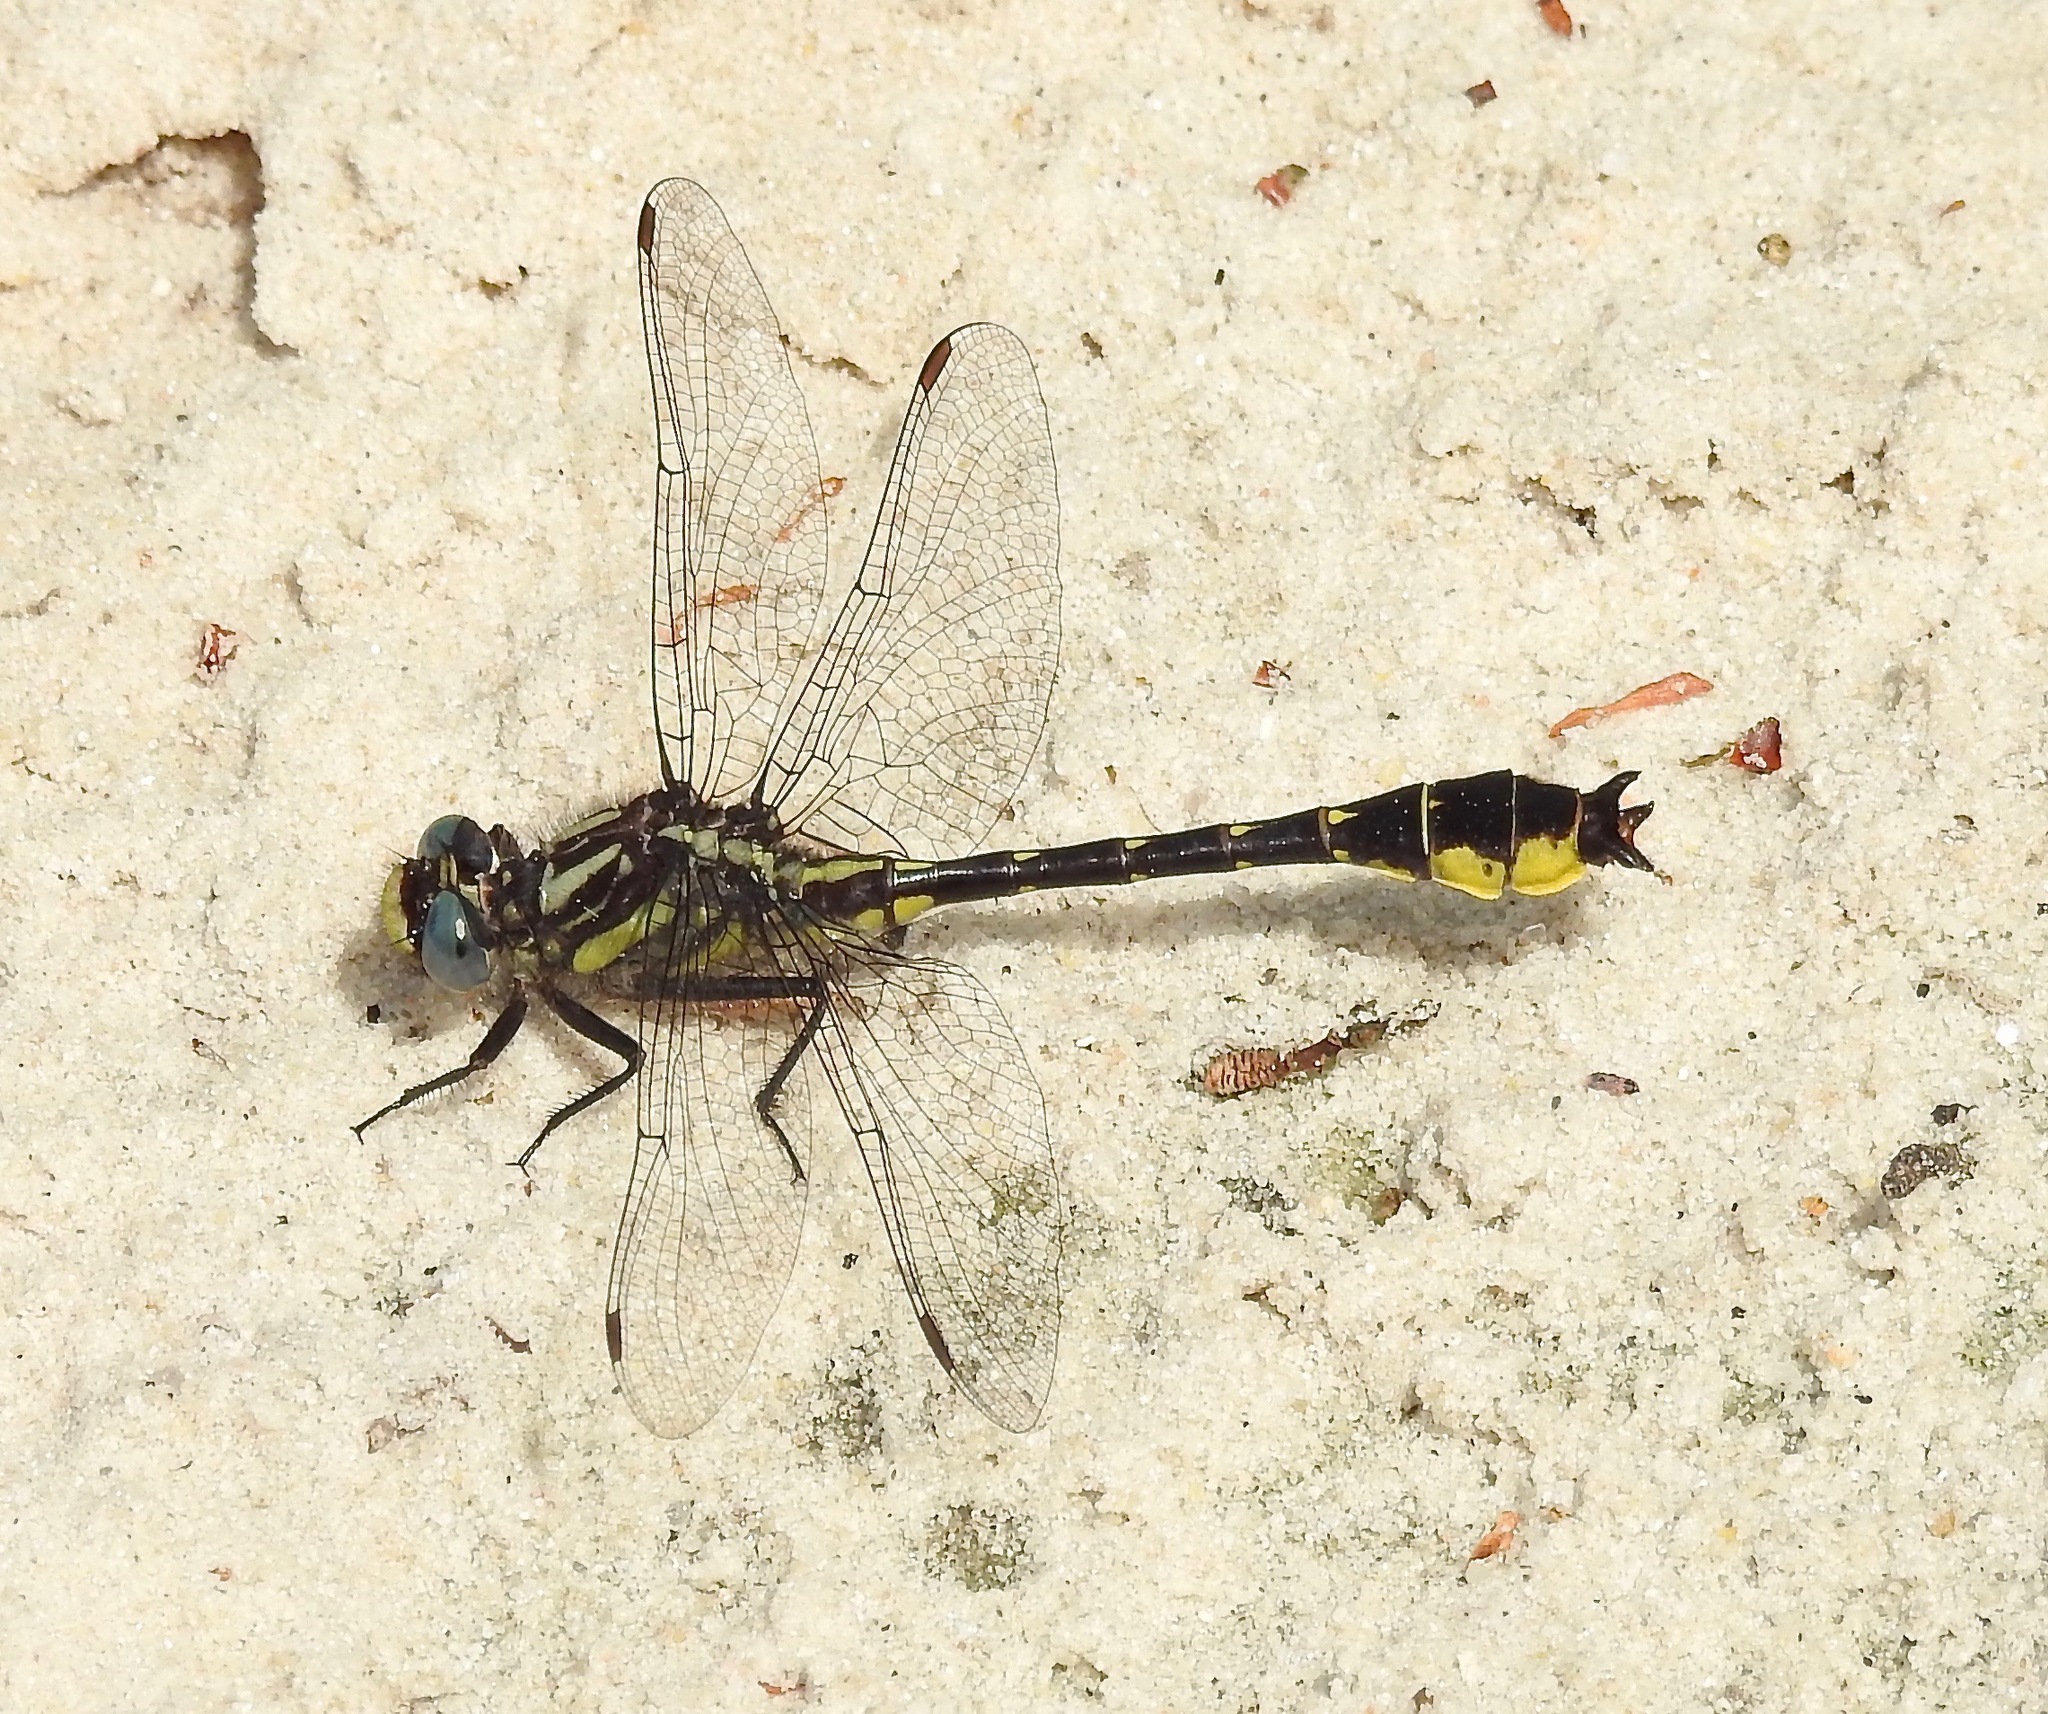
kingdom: Animalia
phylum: Arthropoda
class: Insecta
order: Odonata
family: Gomphidae
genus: Hylogomphus
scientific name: Hylogomphus apomyius
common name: Banner clubtail
